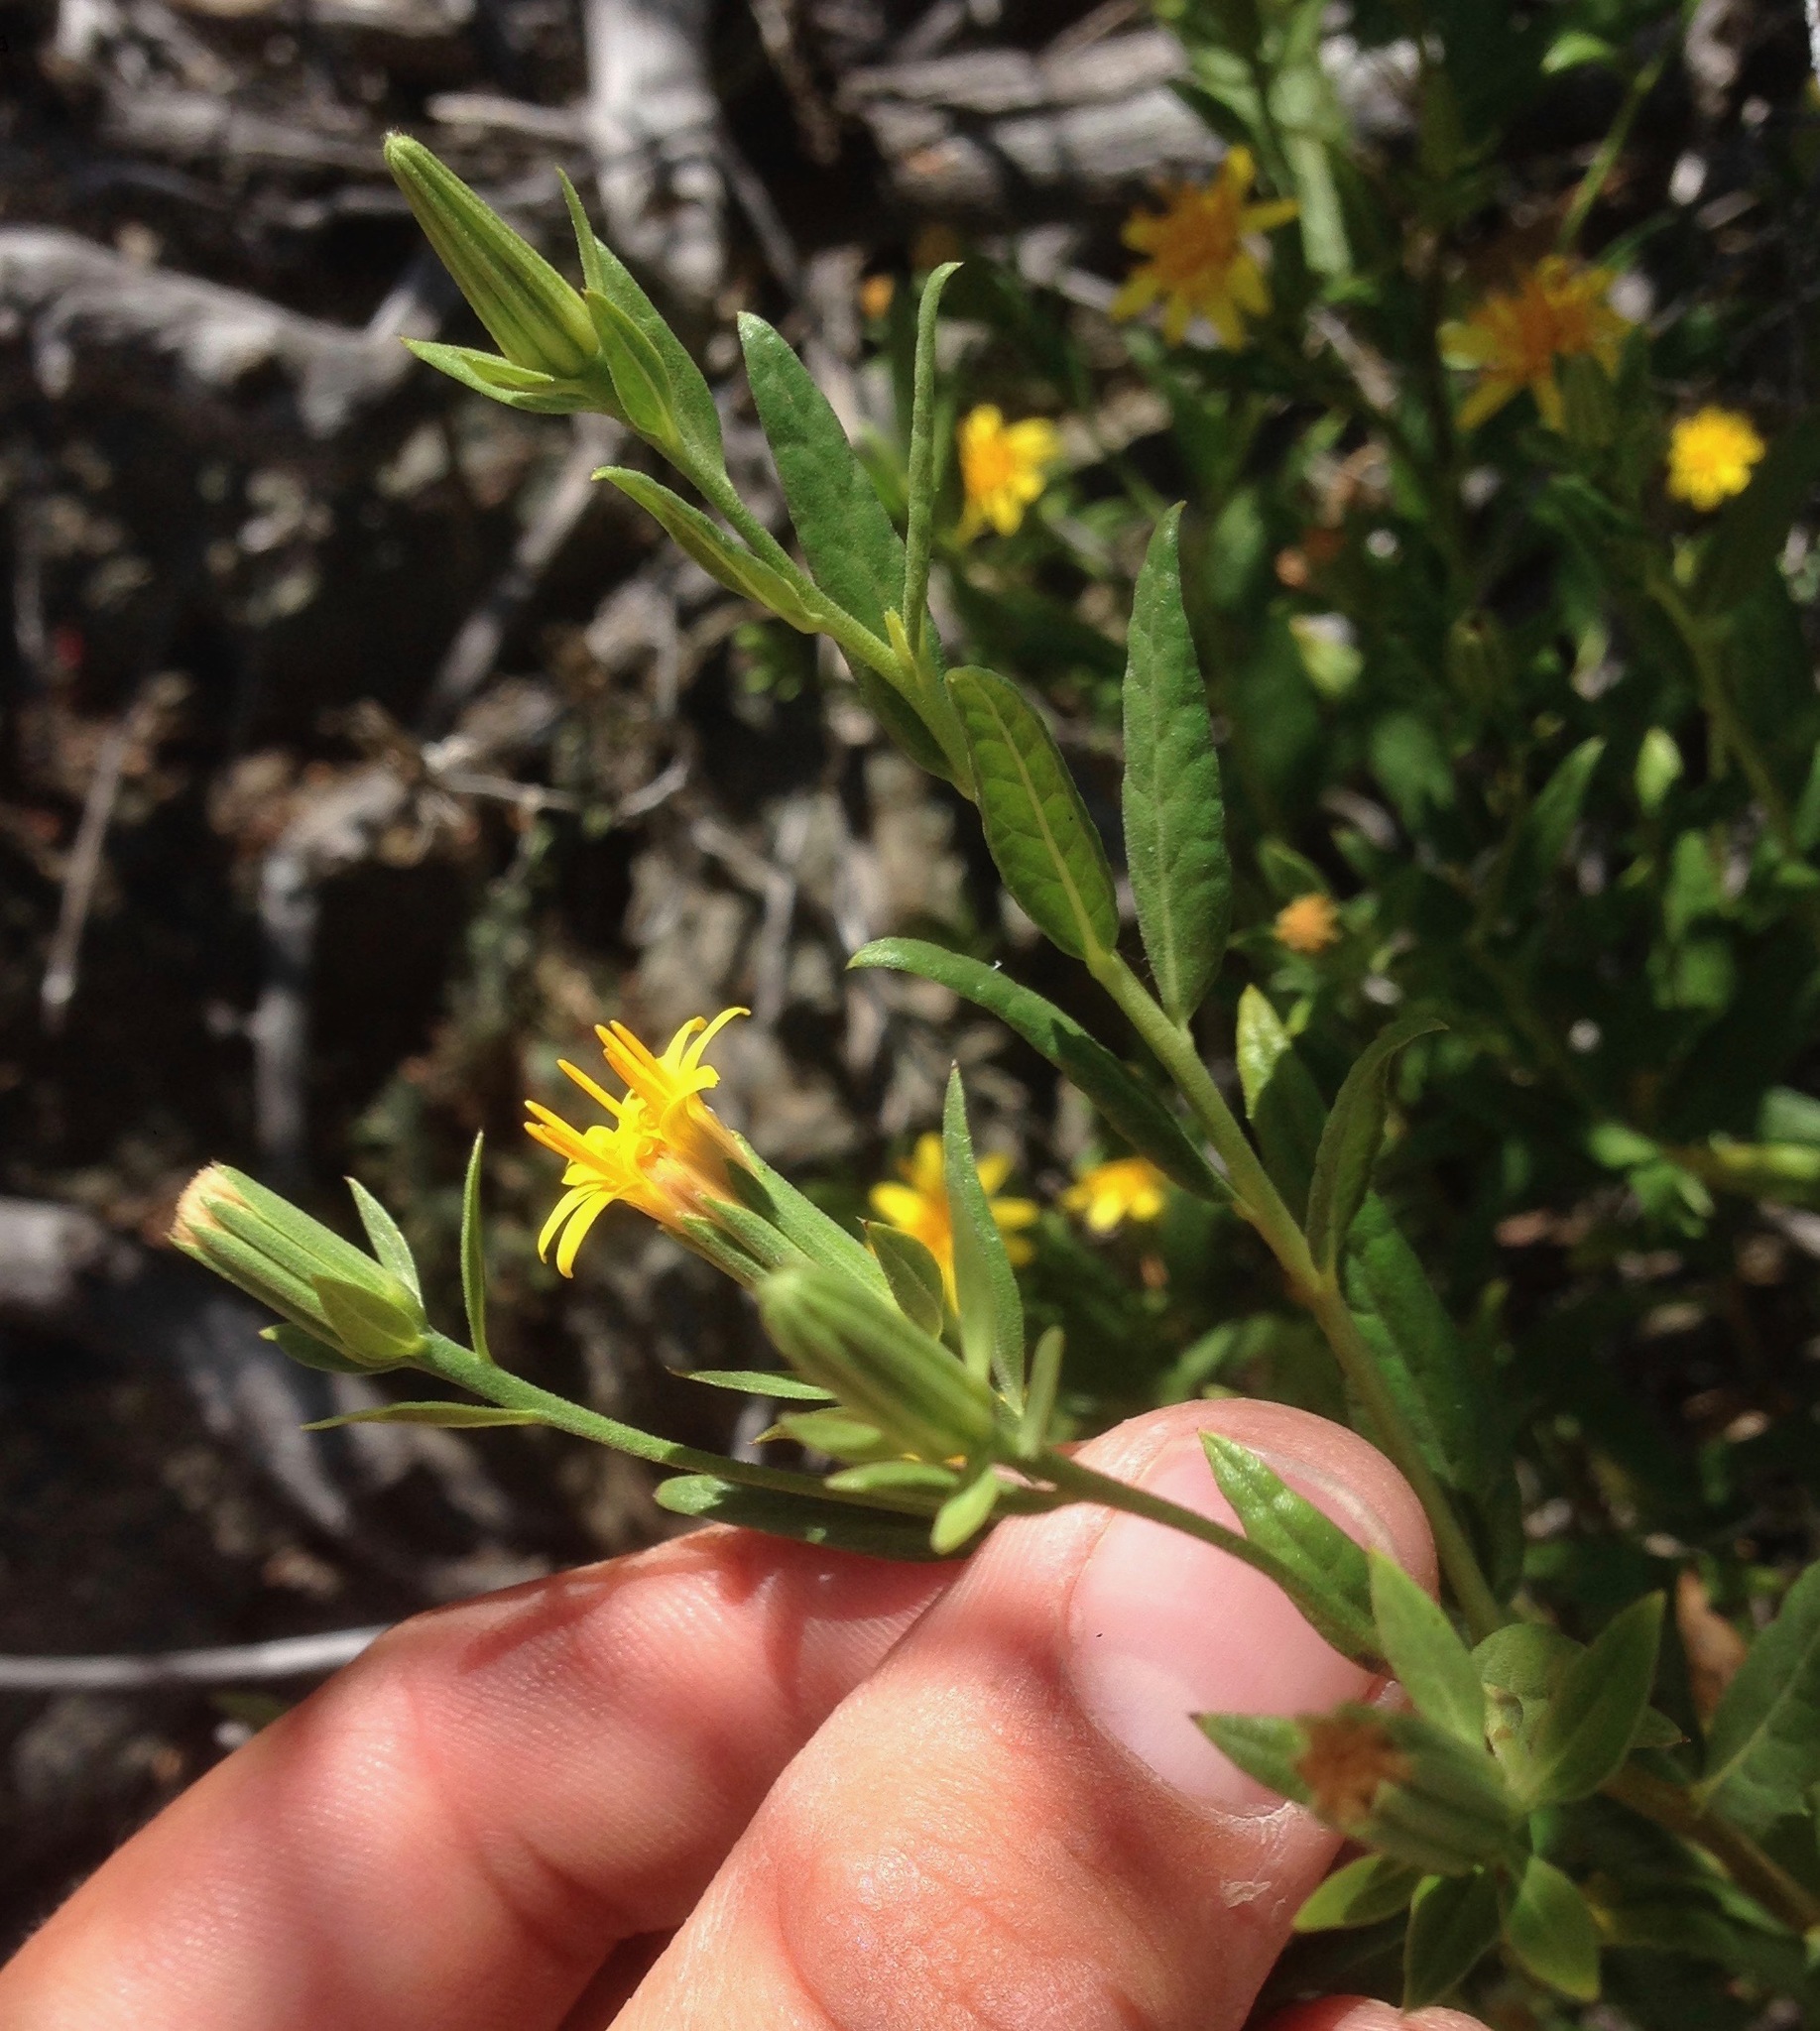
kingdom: Plantae
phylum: Tracheophyta
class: Magnoliopsida
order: Asterales
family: Asteraceae
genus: Trixis
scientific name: Trixis californica
